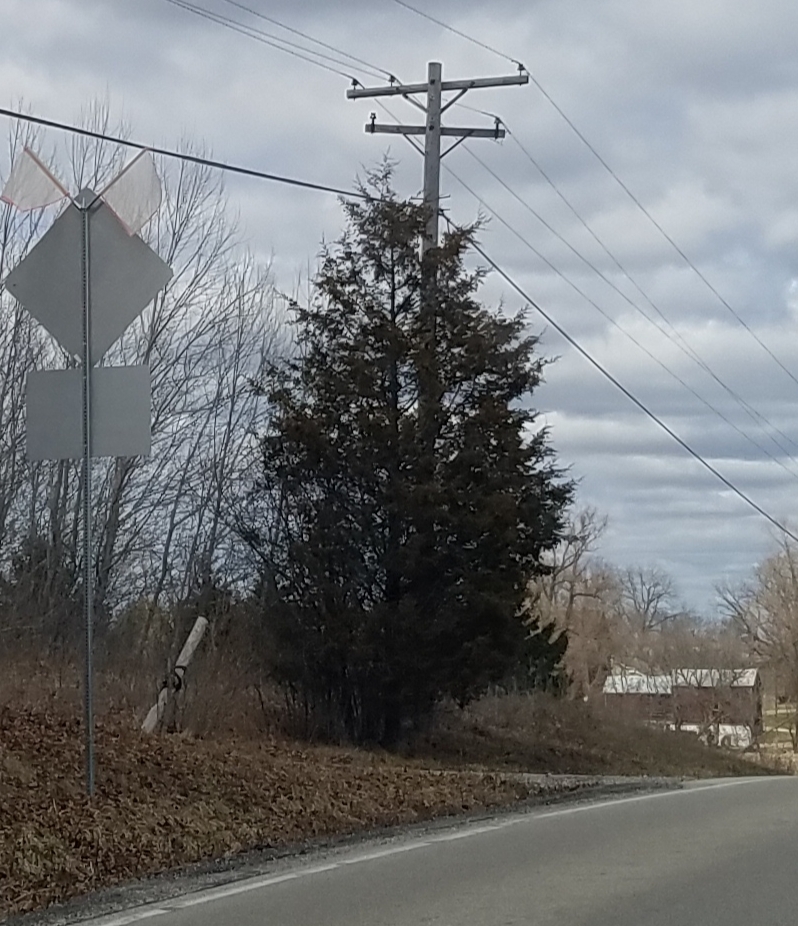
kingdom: Plantae
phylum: Tracheophyta
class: Pinopsida
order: Pinales
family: Cupressaceae
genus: Juniperus
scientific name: Juniperus virginiana
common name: Red juniper
